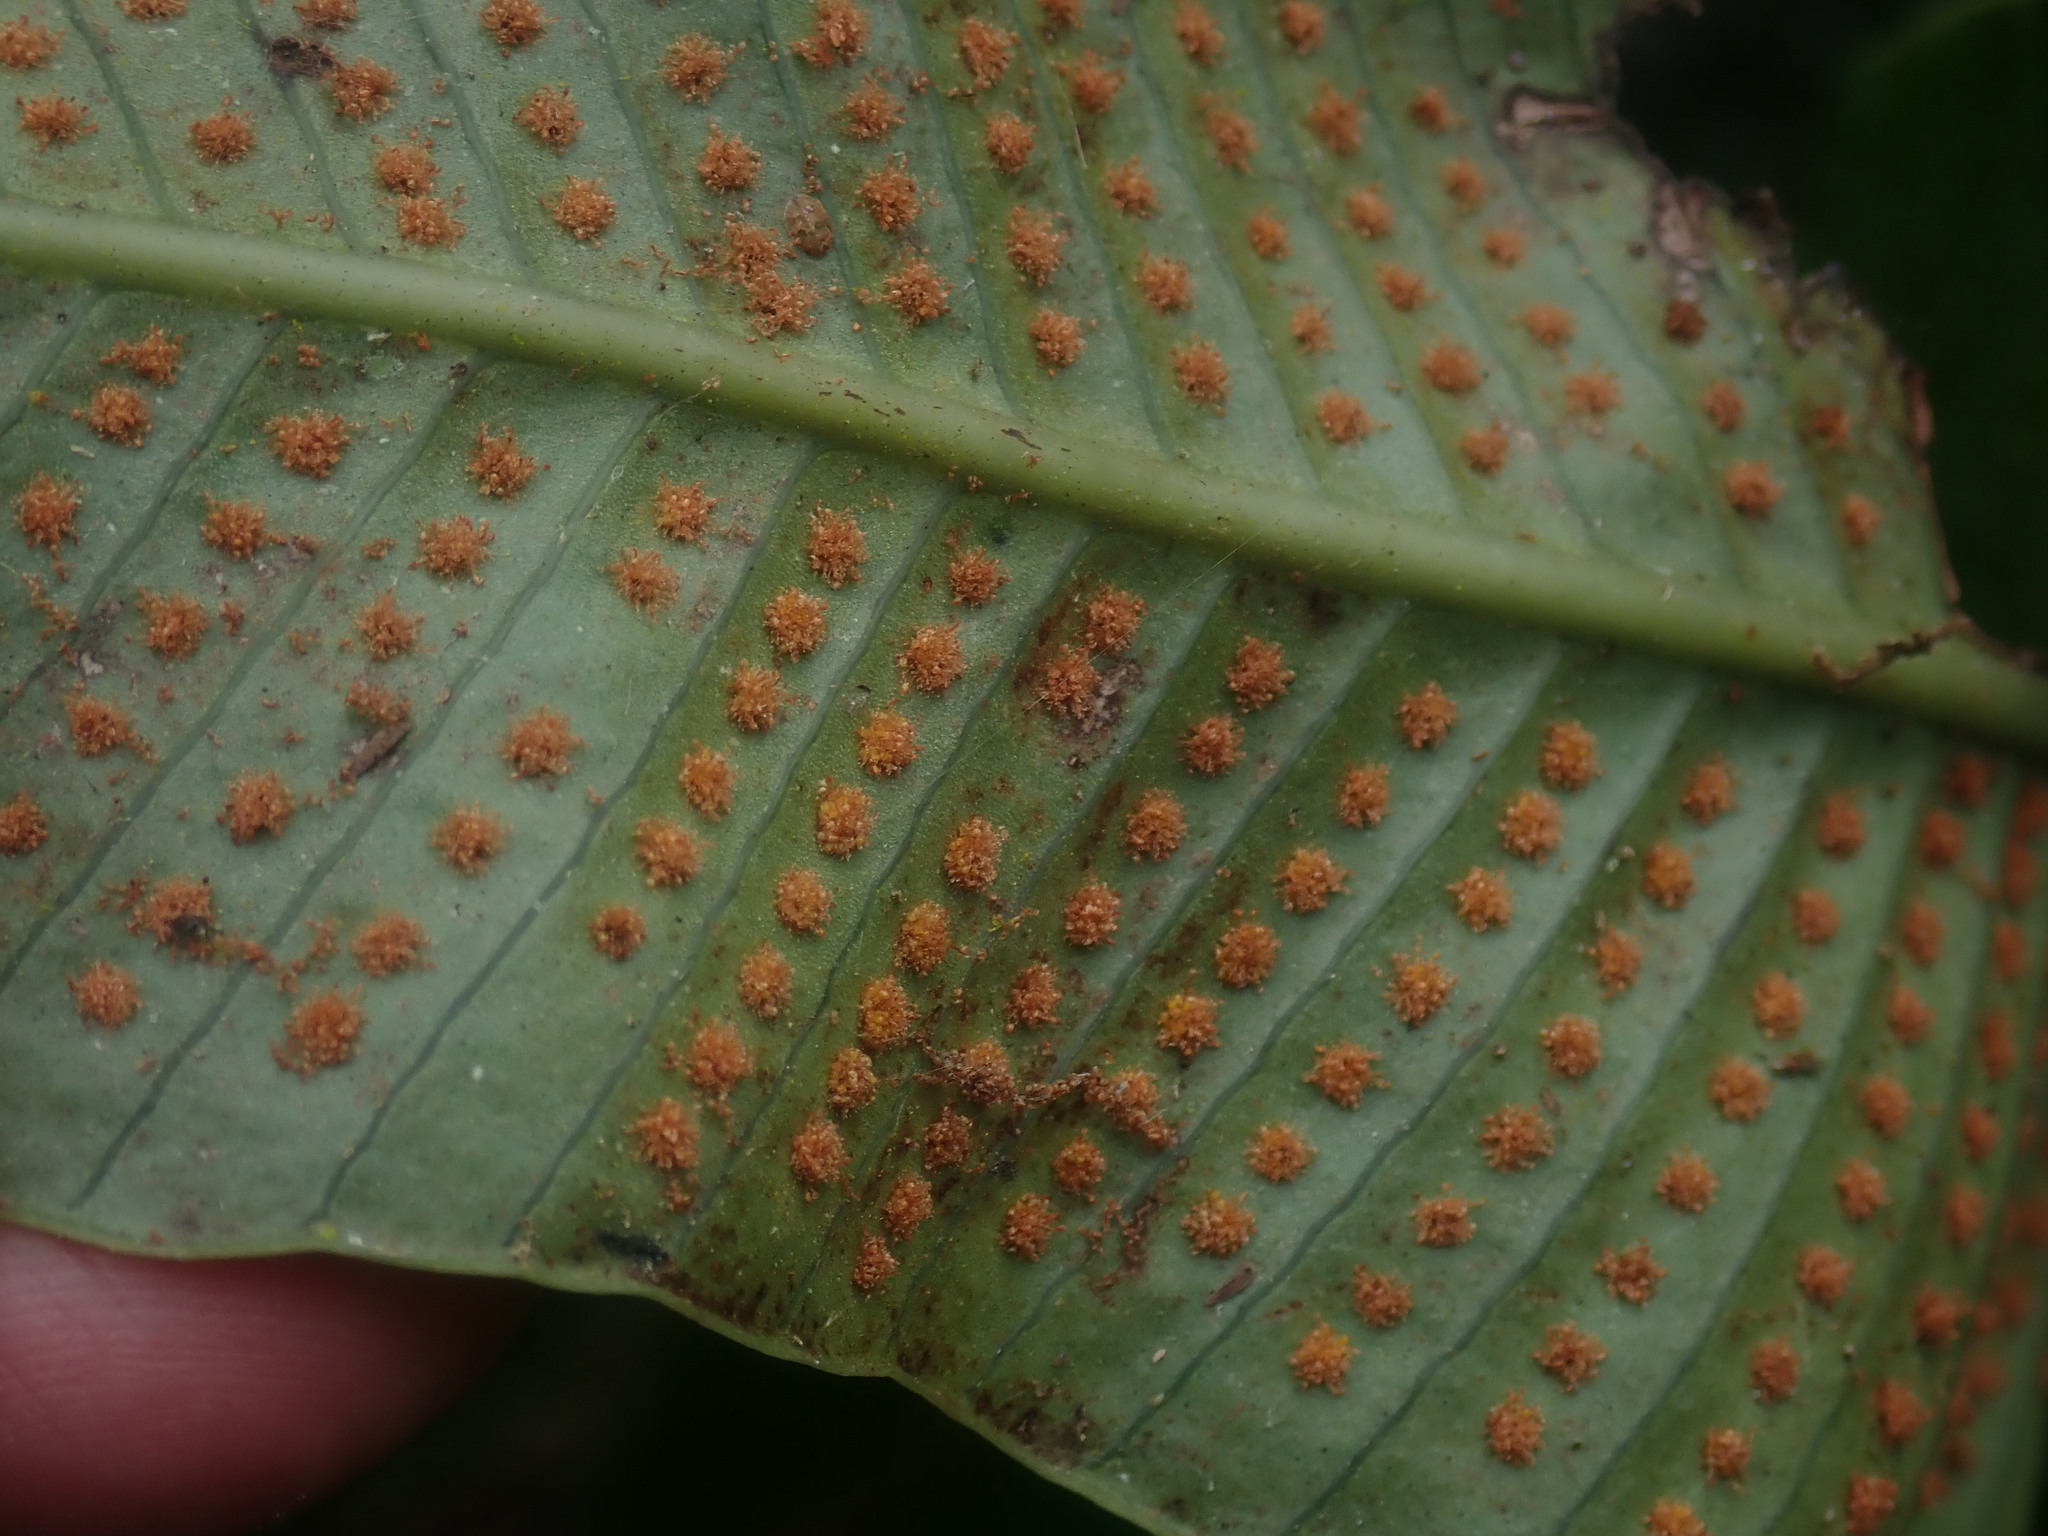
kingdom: Plantae
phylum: Tracheophyta
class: Polypodiopsida
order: Polypodiales
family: Polypodiaceae
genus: Niphidium
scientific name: Niphidium crassifolium
